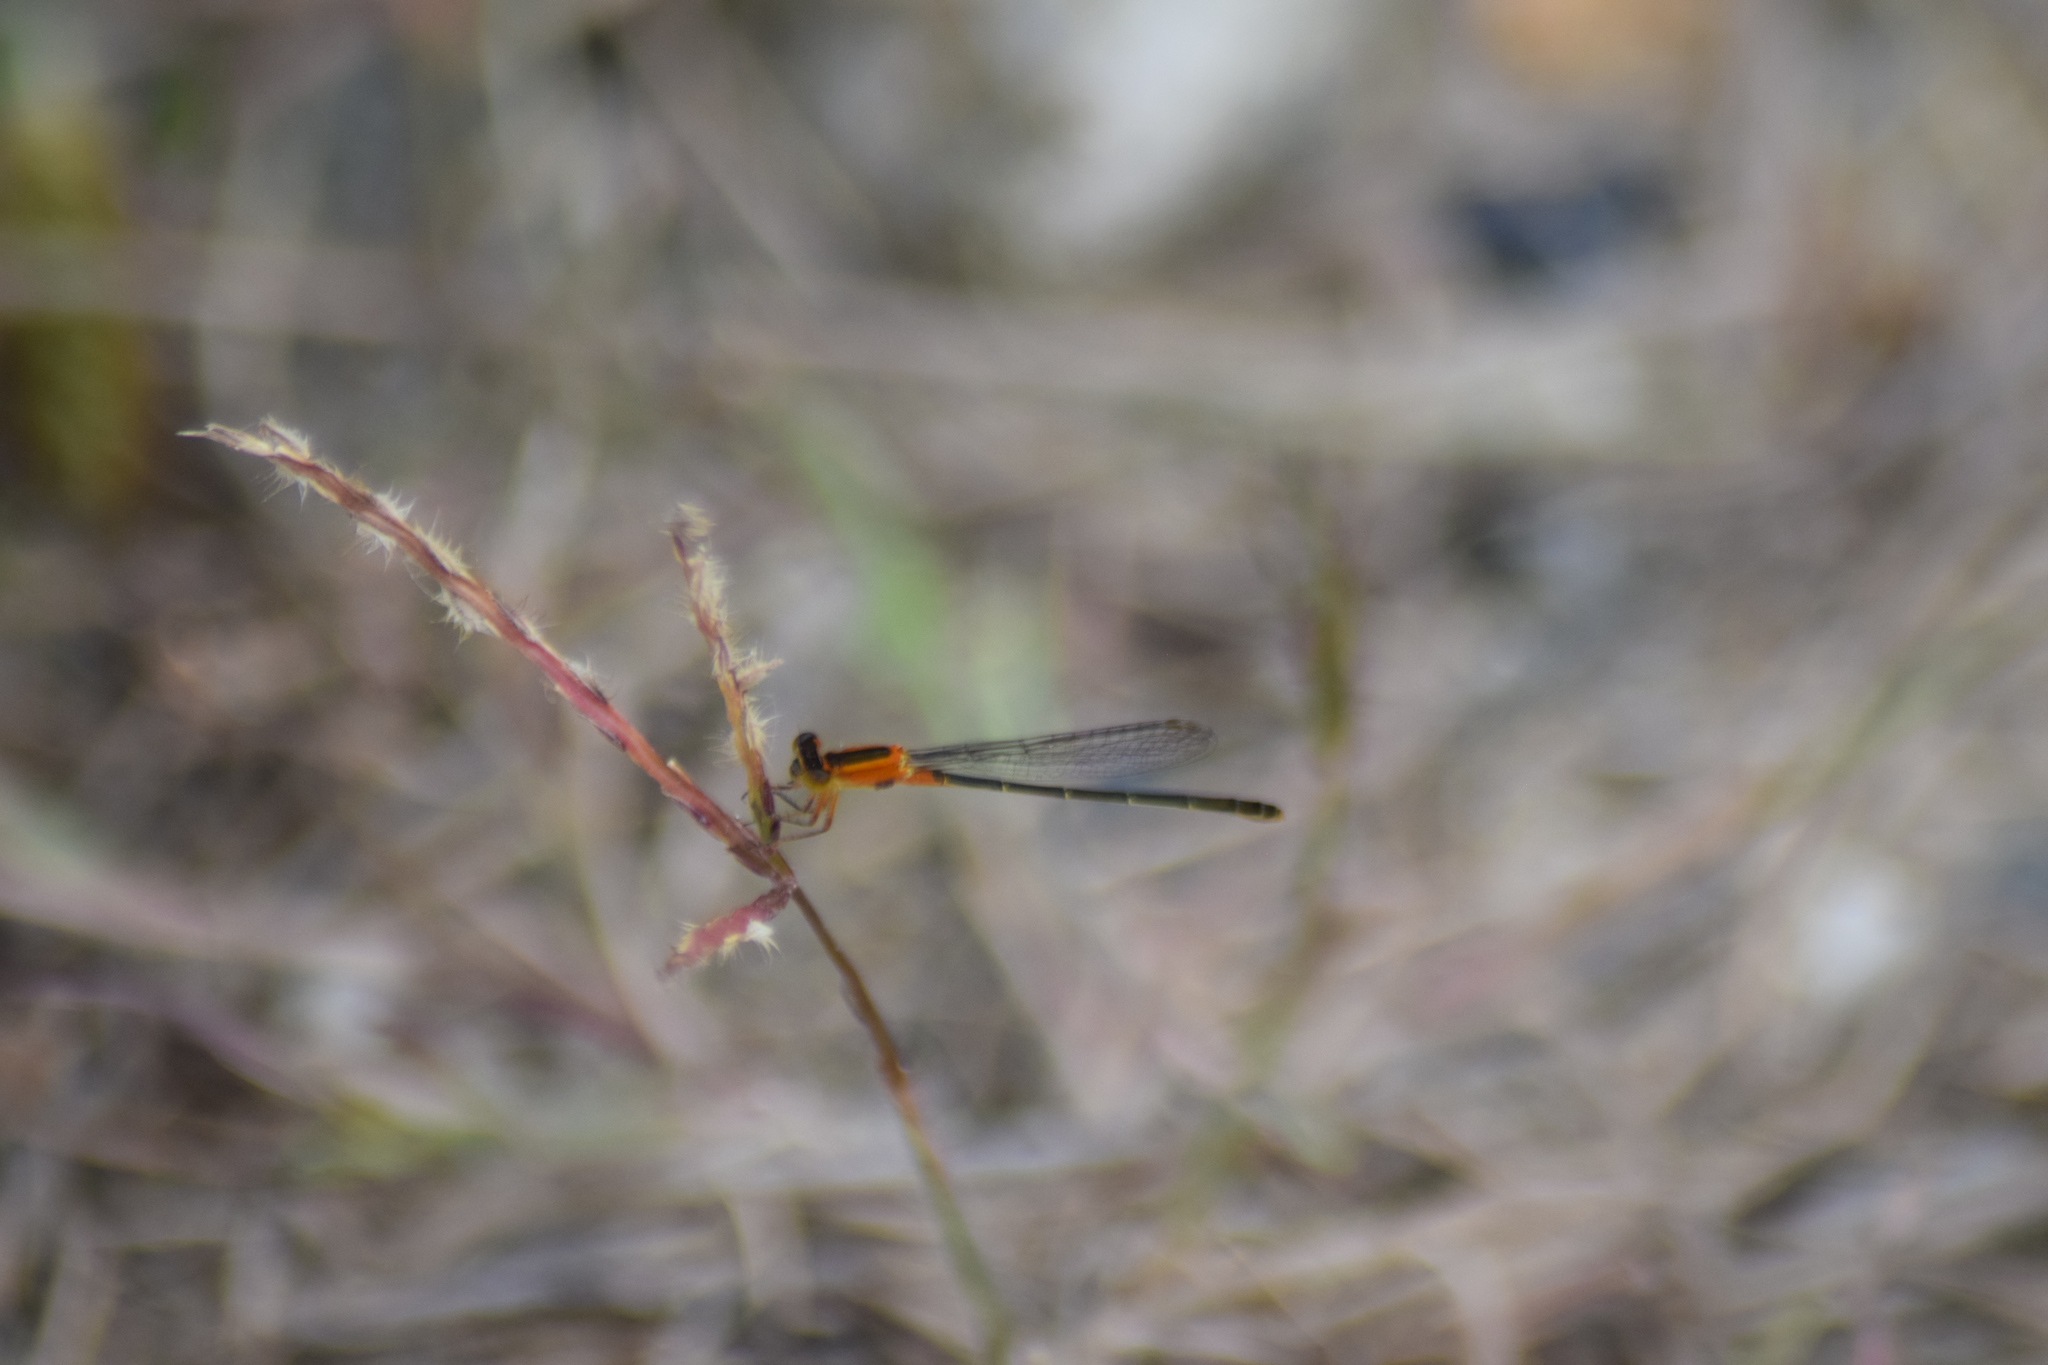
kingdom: Animalia
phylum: Arthropoda
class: Insecta
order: Odonata
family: Coenagrionidae
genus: Ischnura
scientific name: Ischnura ramburii
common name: Rambur's forktail
